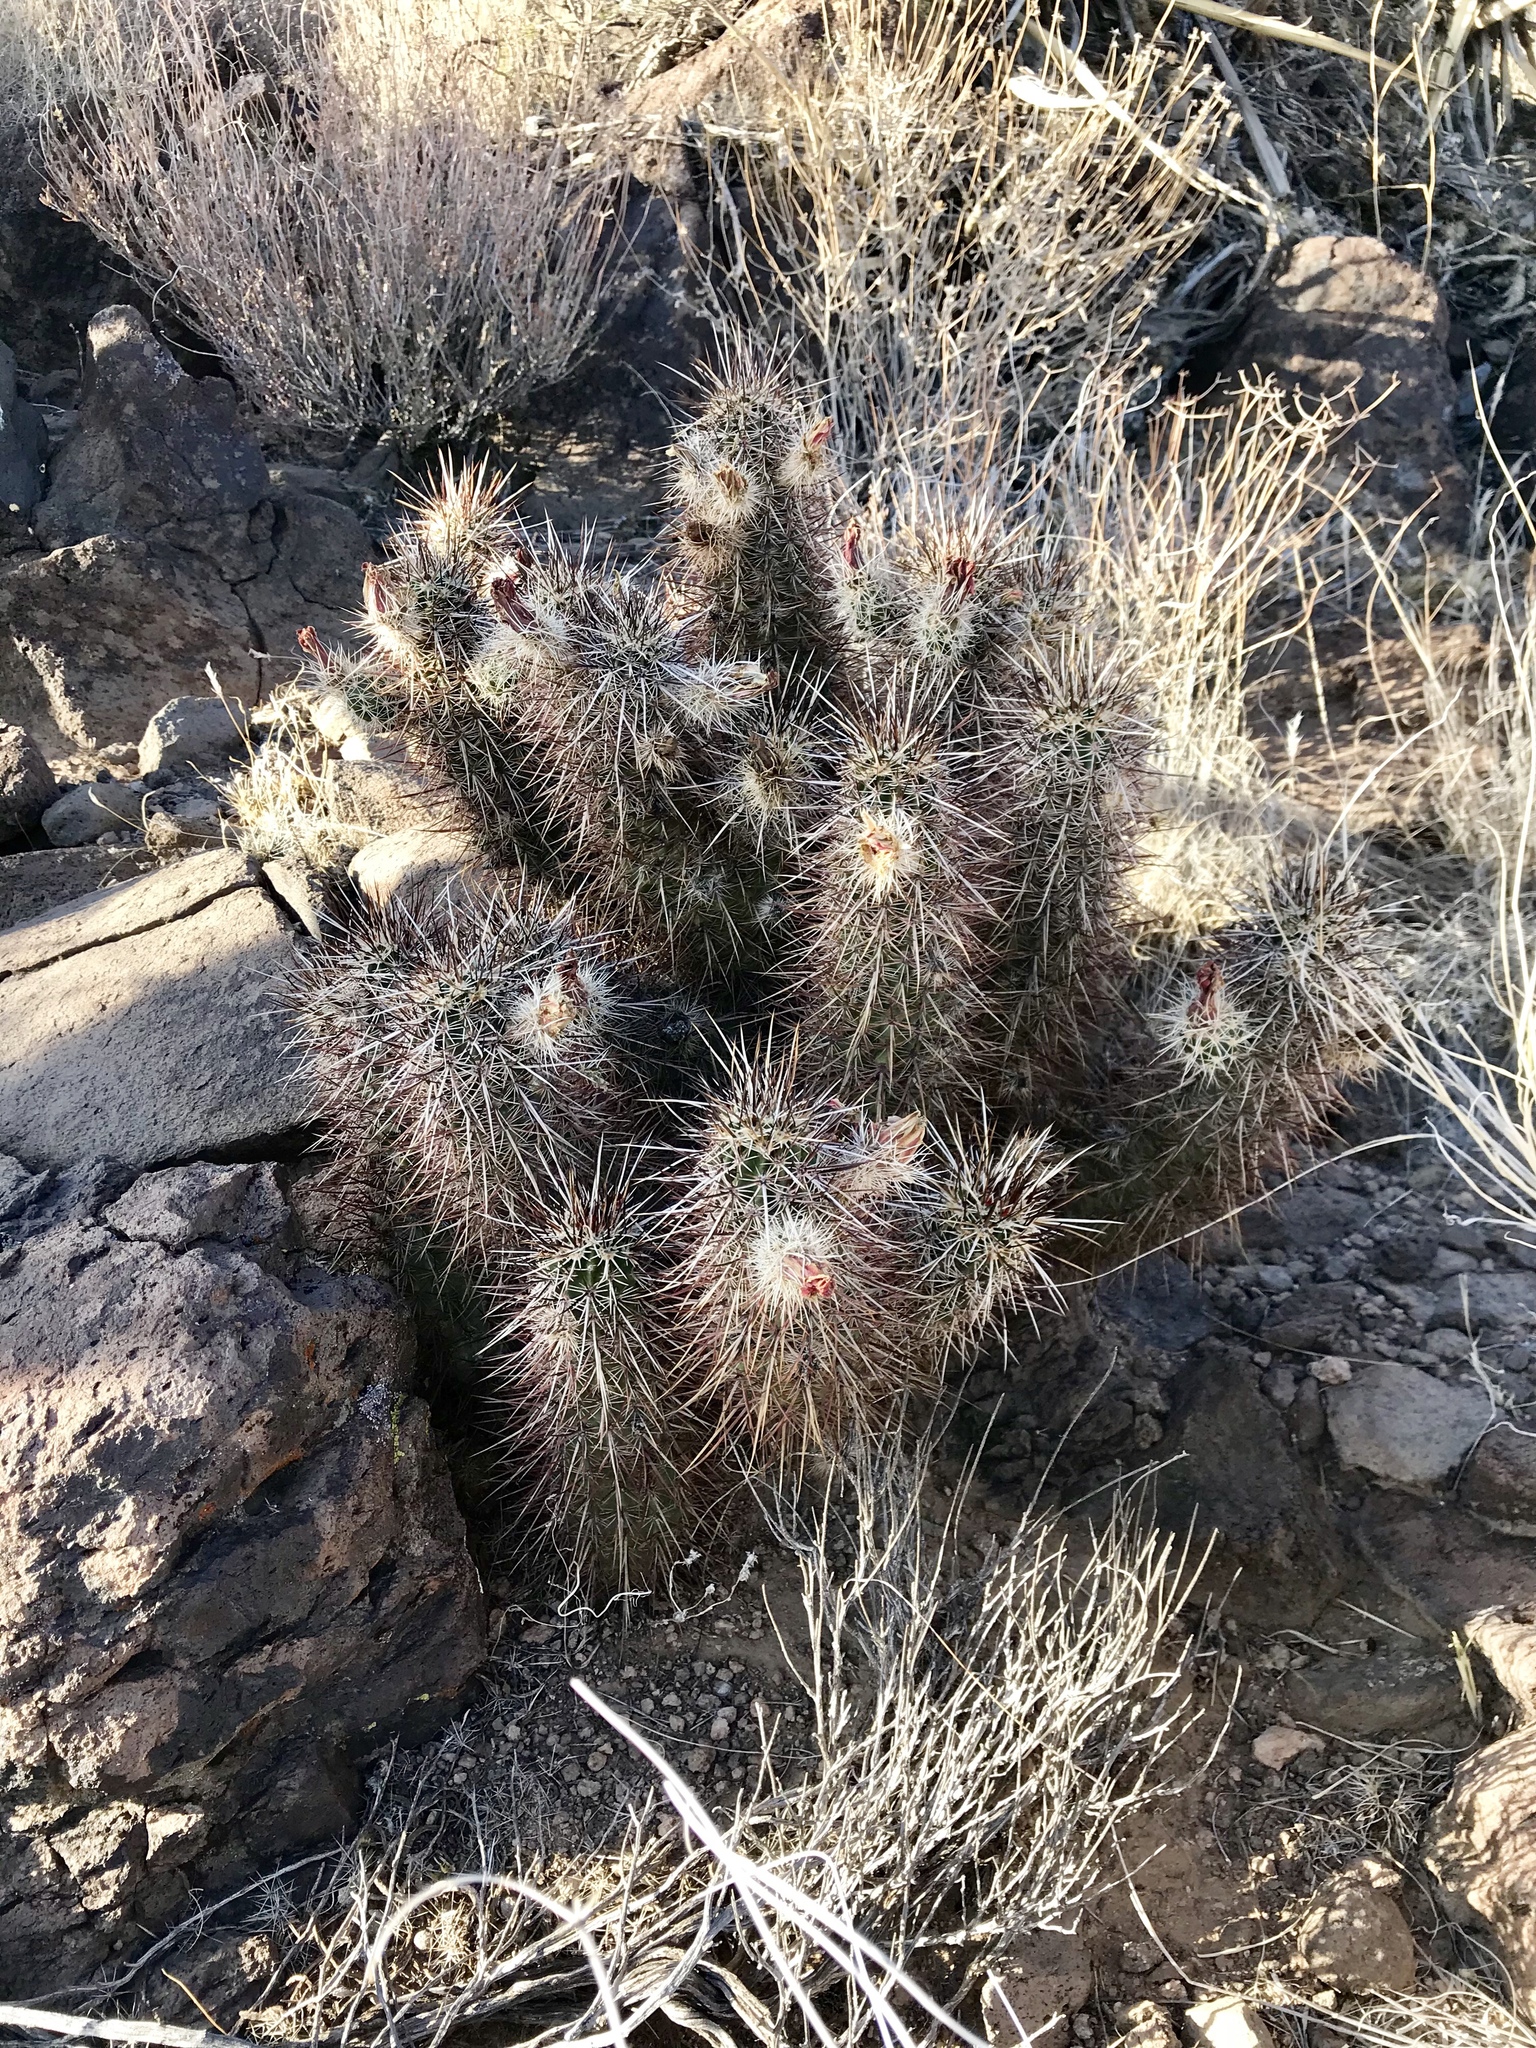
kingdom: Plantae
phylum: Tracheophyta
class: Magnoliopsida
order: Caryophyllales
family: Cactaceae
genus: Echinocereus
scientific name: Echinocereus engelmannii
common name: Engelmann's hedgehog cactus
